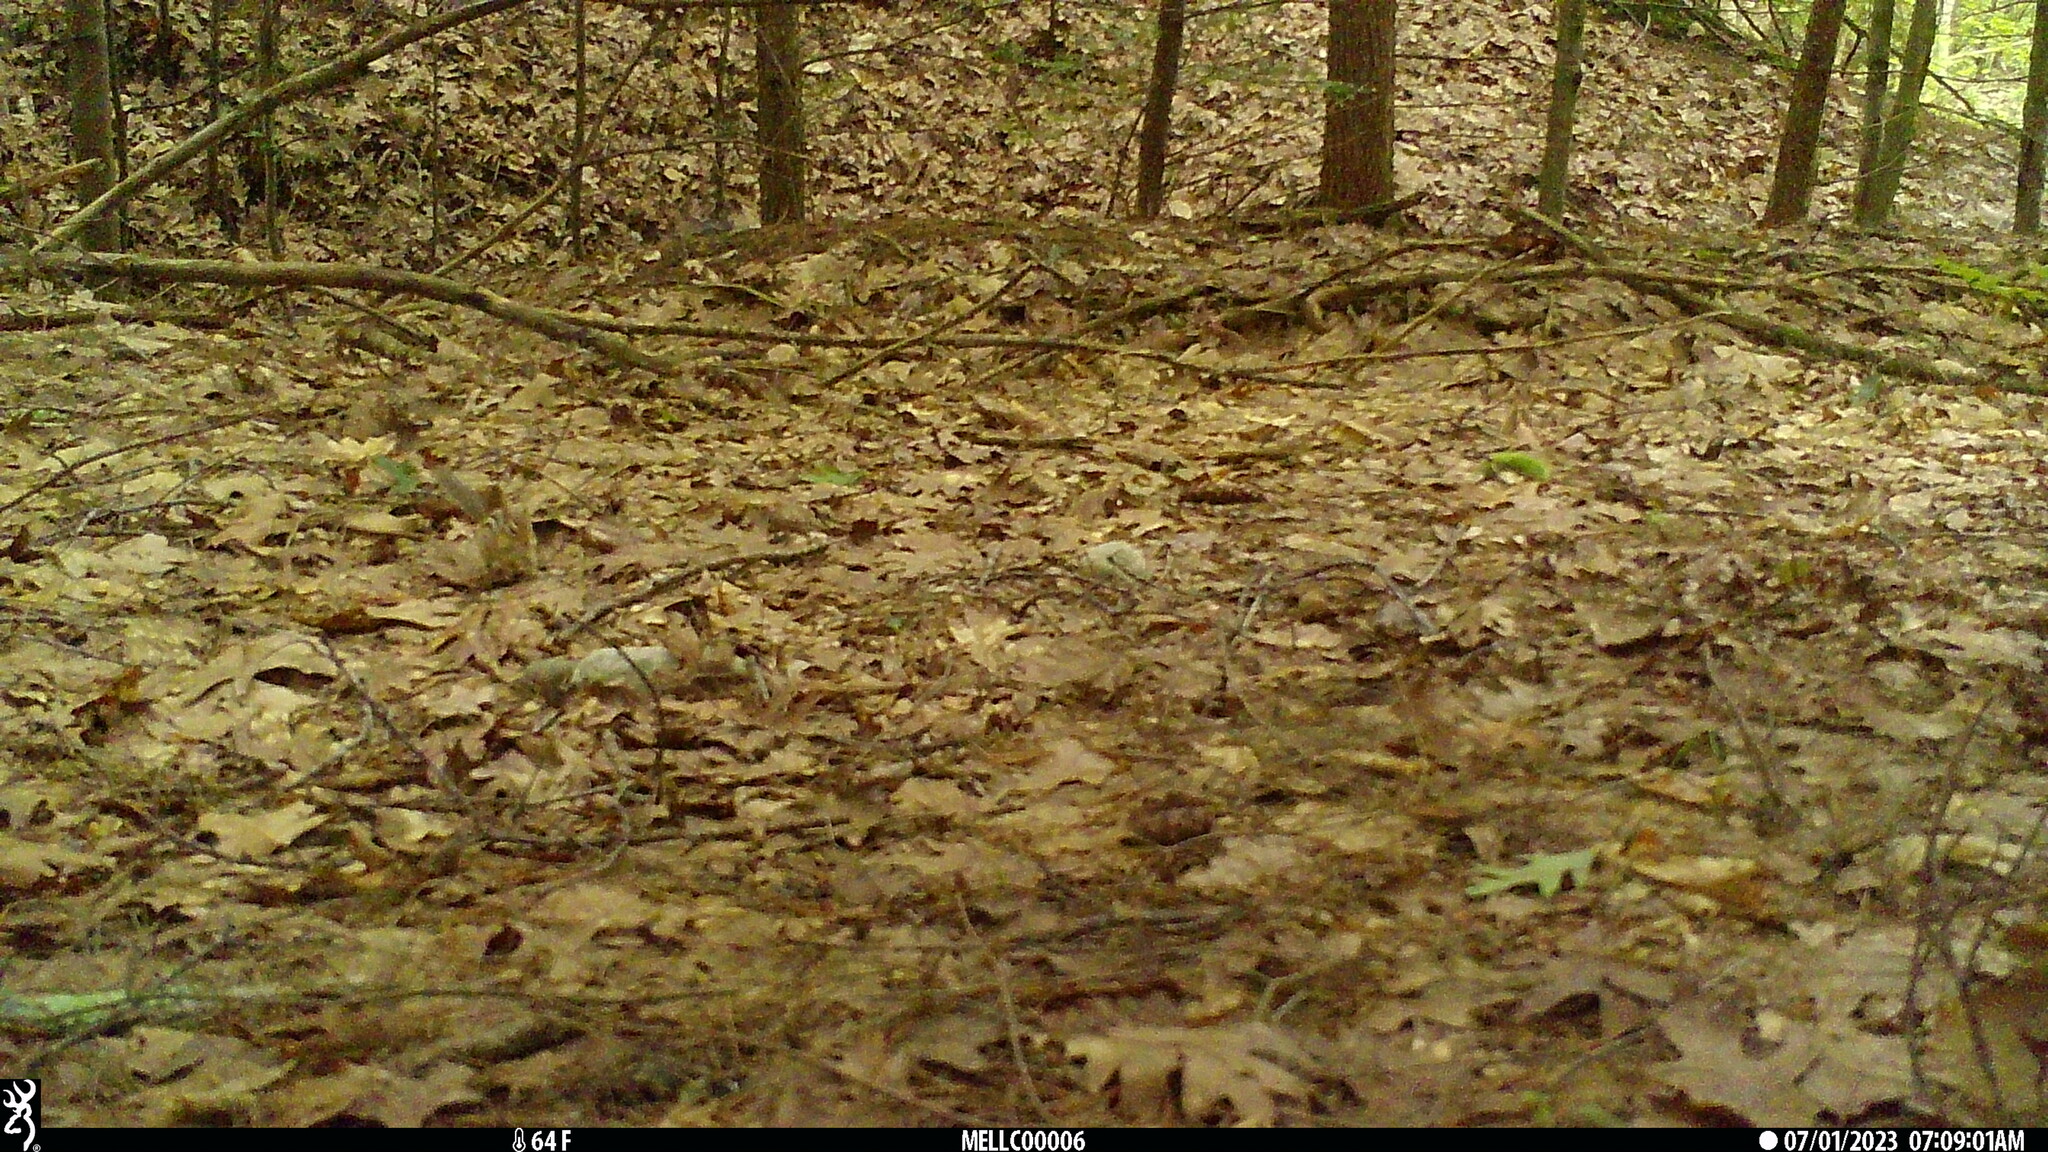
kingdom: Animalia
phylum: Chordata
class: Mammalia
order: Rodentia
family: Sciuridae
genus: Tamias
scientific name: Tamias striatus
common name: Eastern chipmunk
